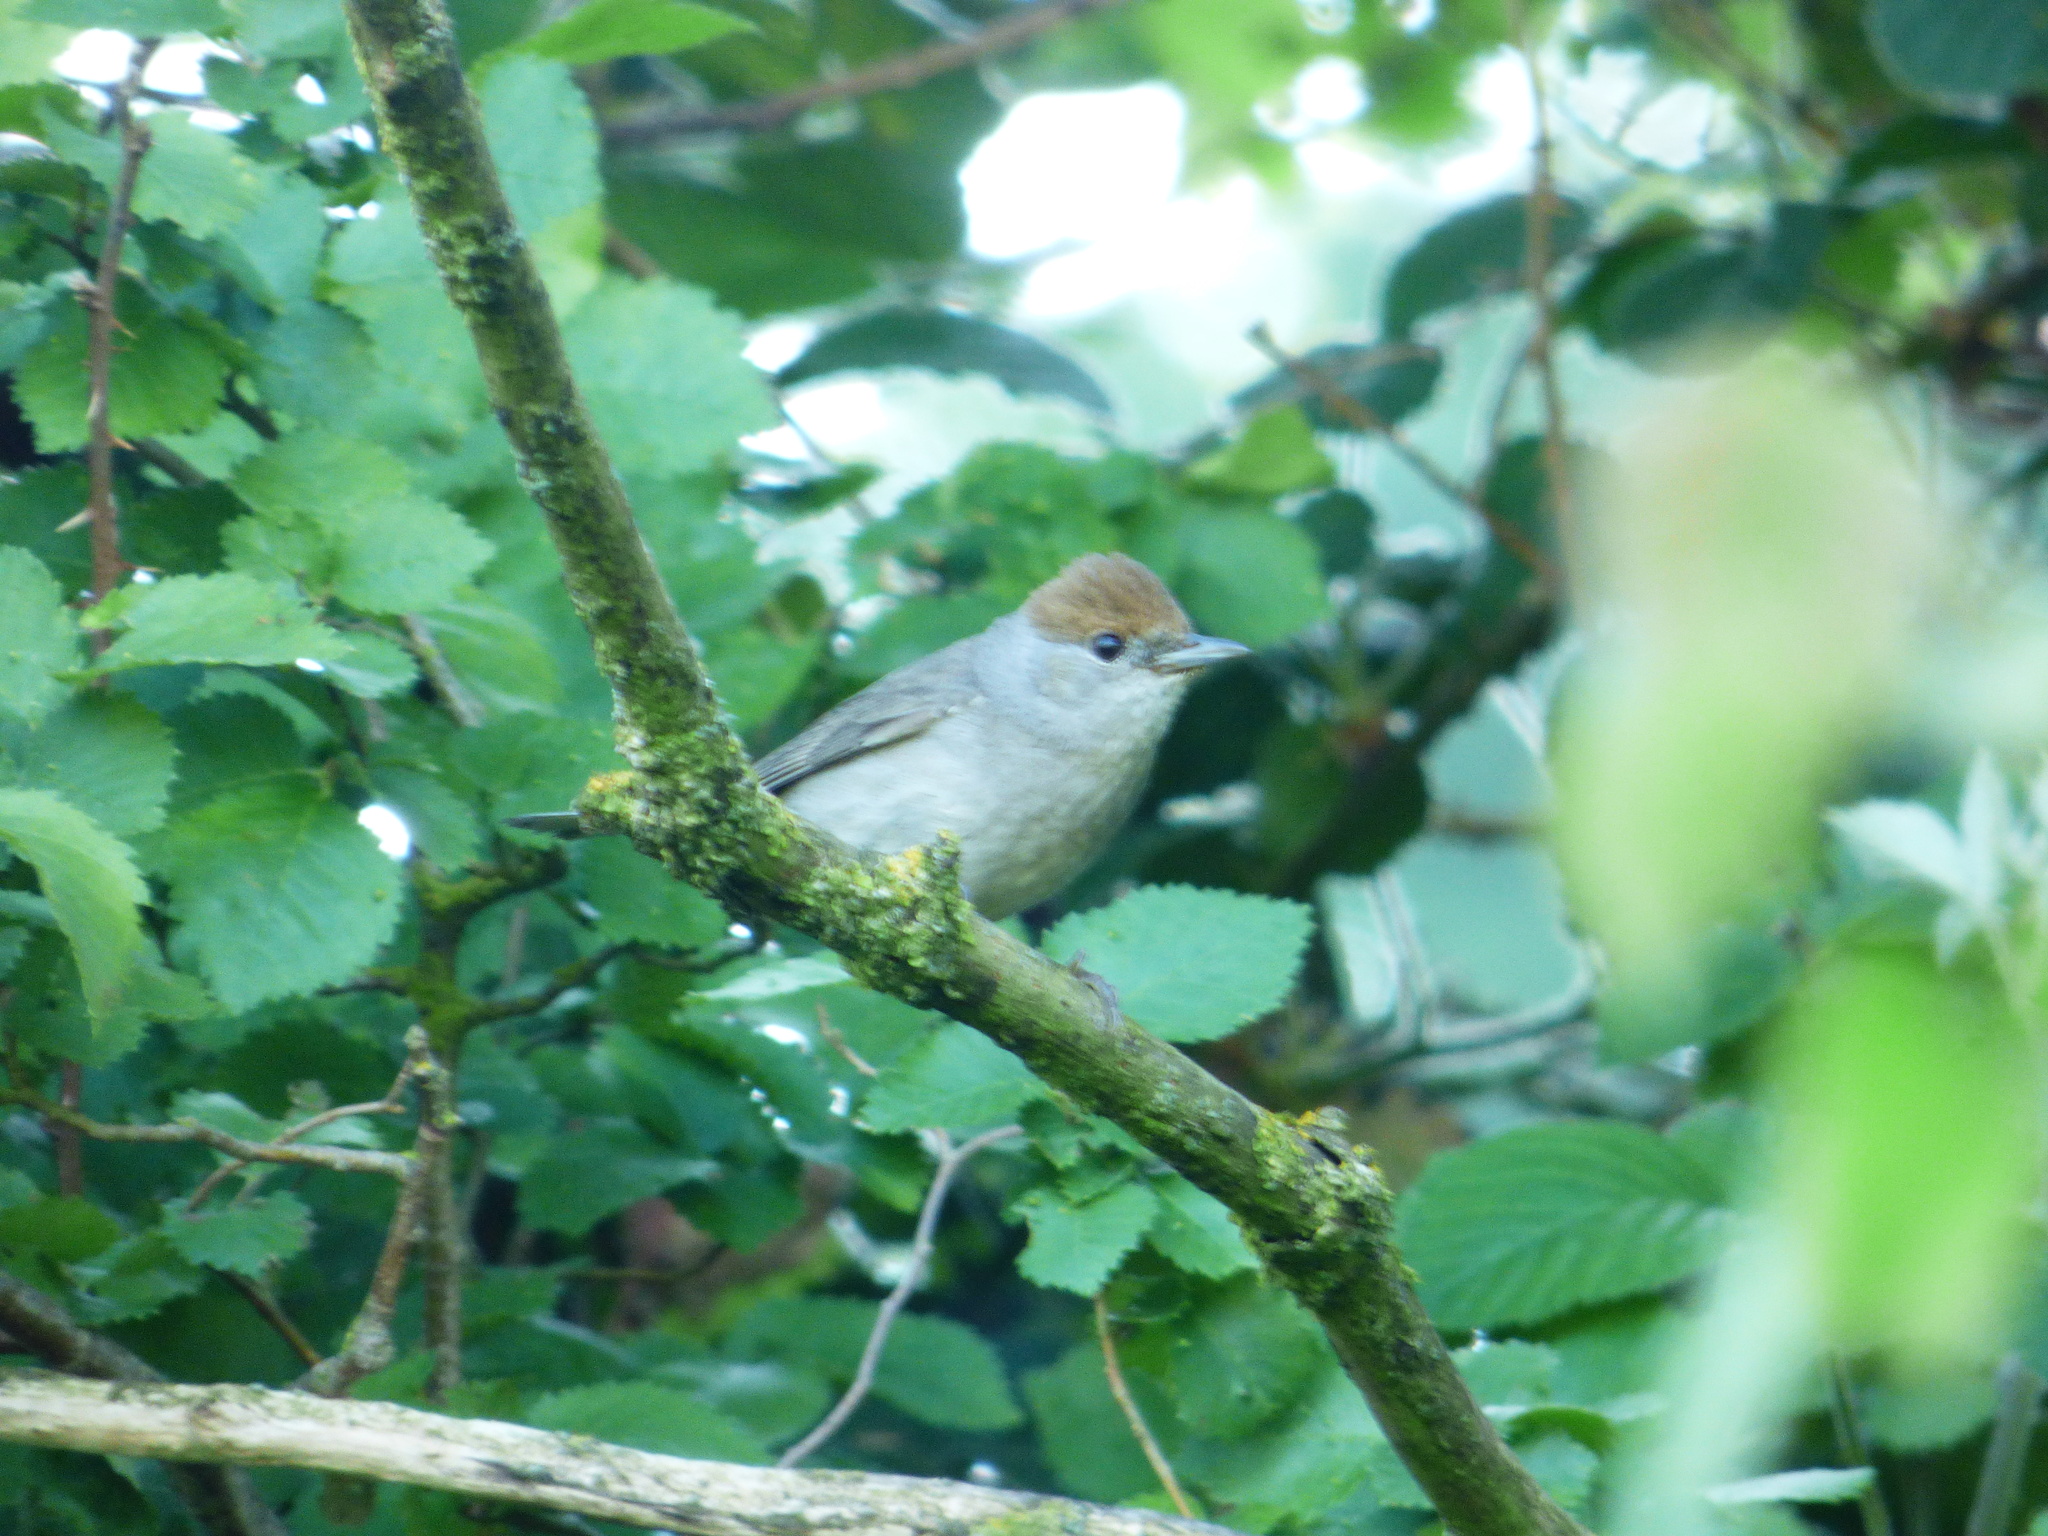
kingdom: Animalia
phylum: Chordata
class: Aves
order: Passeriformes
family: Sylviidae
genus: Sylvia
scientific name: Sylvia atricapilla
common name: Eurasian blackcap
